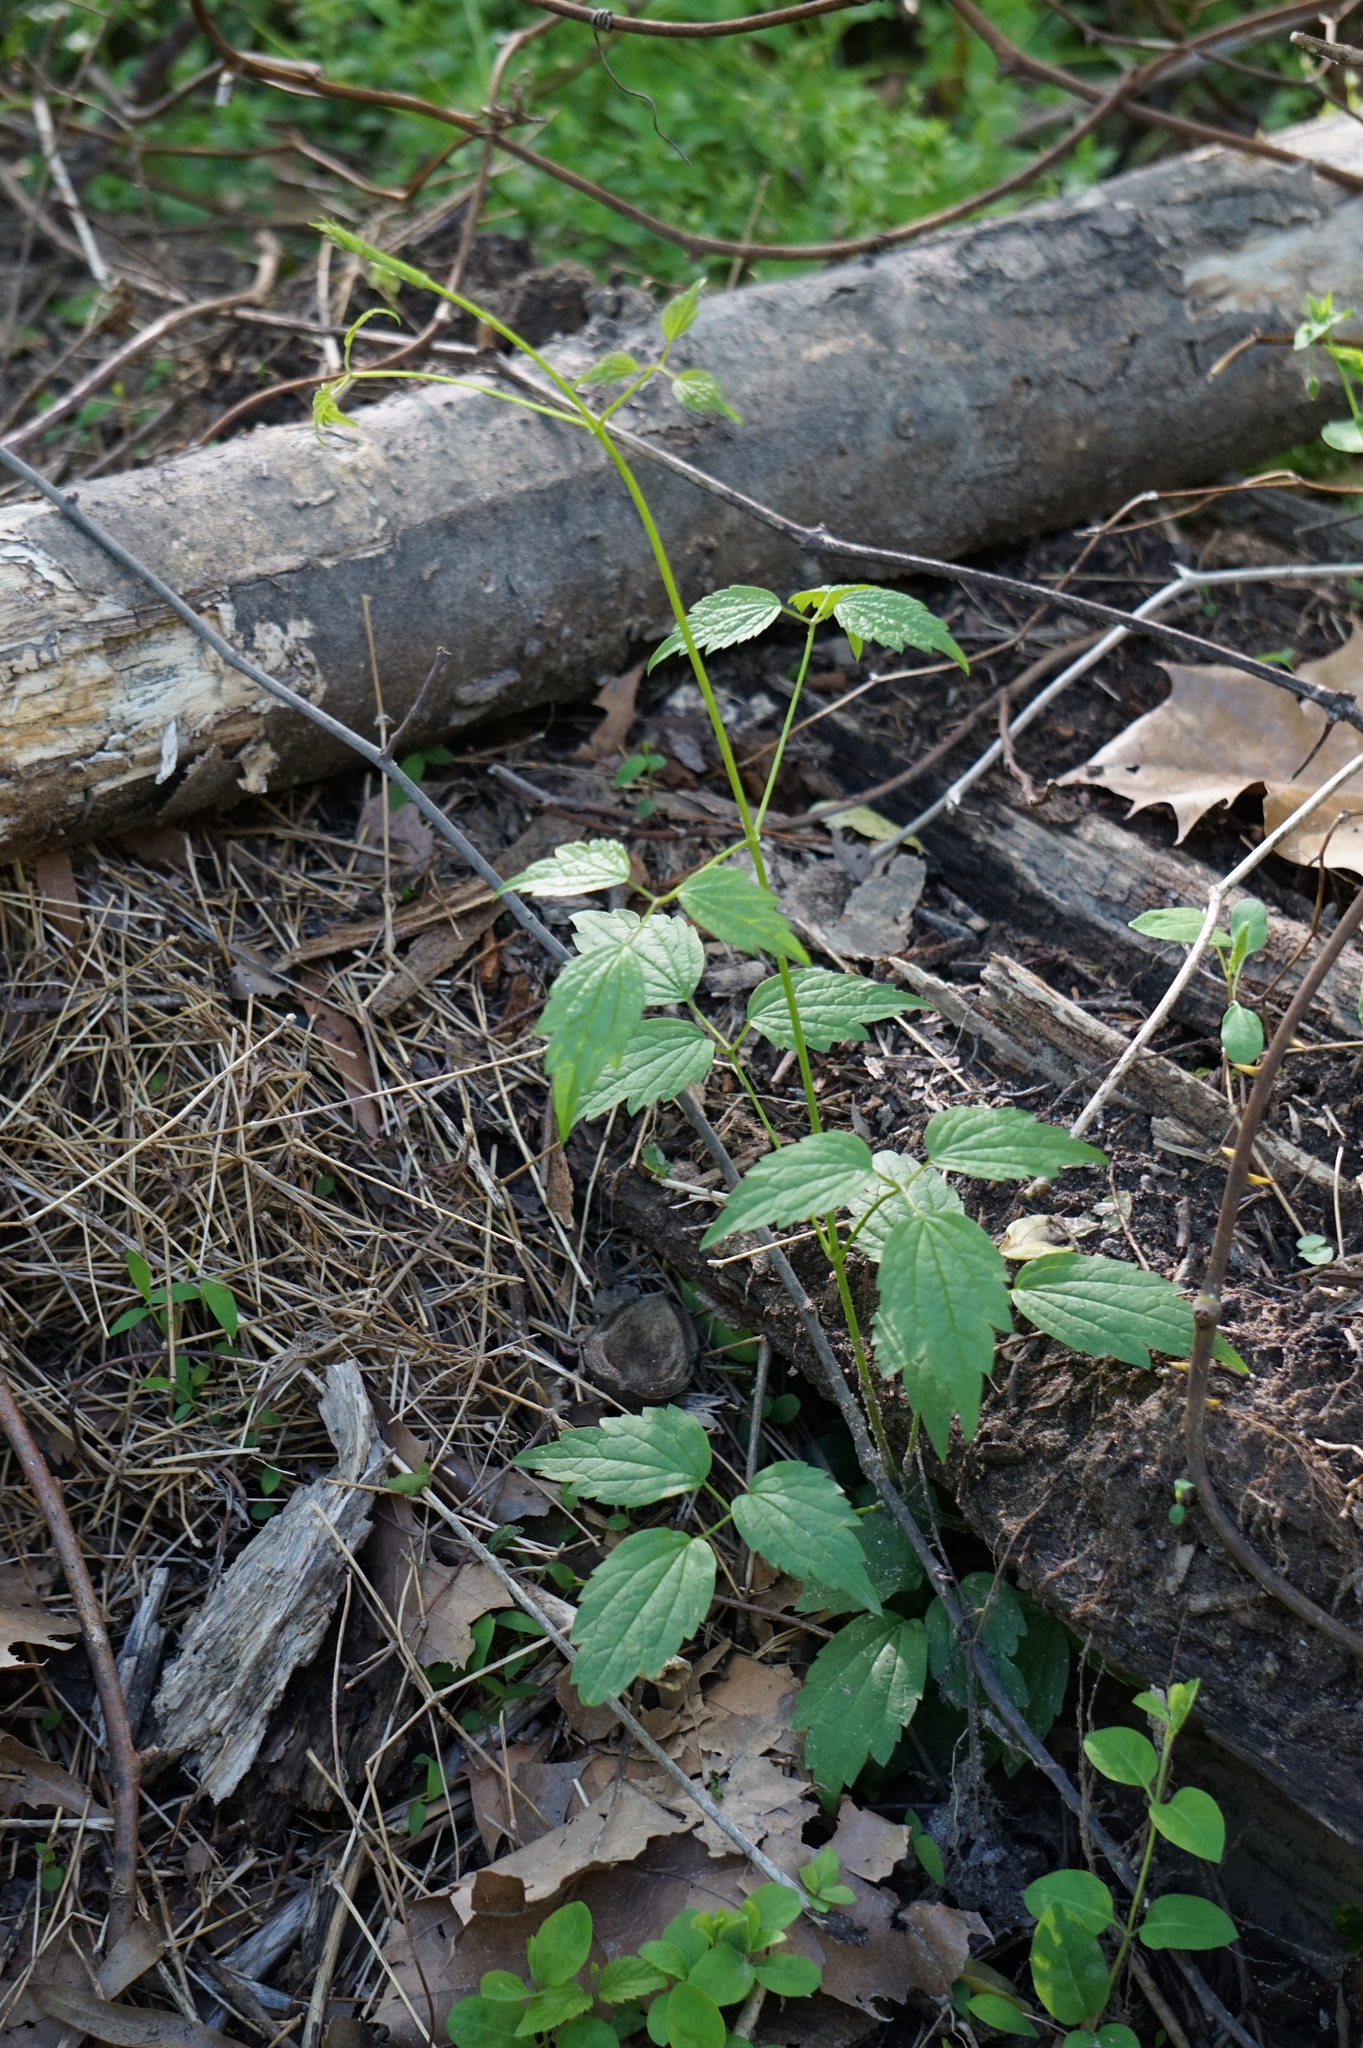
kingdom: Plantae
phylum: Tracheophyta
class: Magnoliopsida
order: Ranunculales
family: Ranunculaceae
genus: Clematis
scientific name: Clematis virginiana
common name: Virgin's-bower
